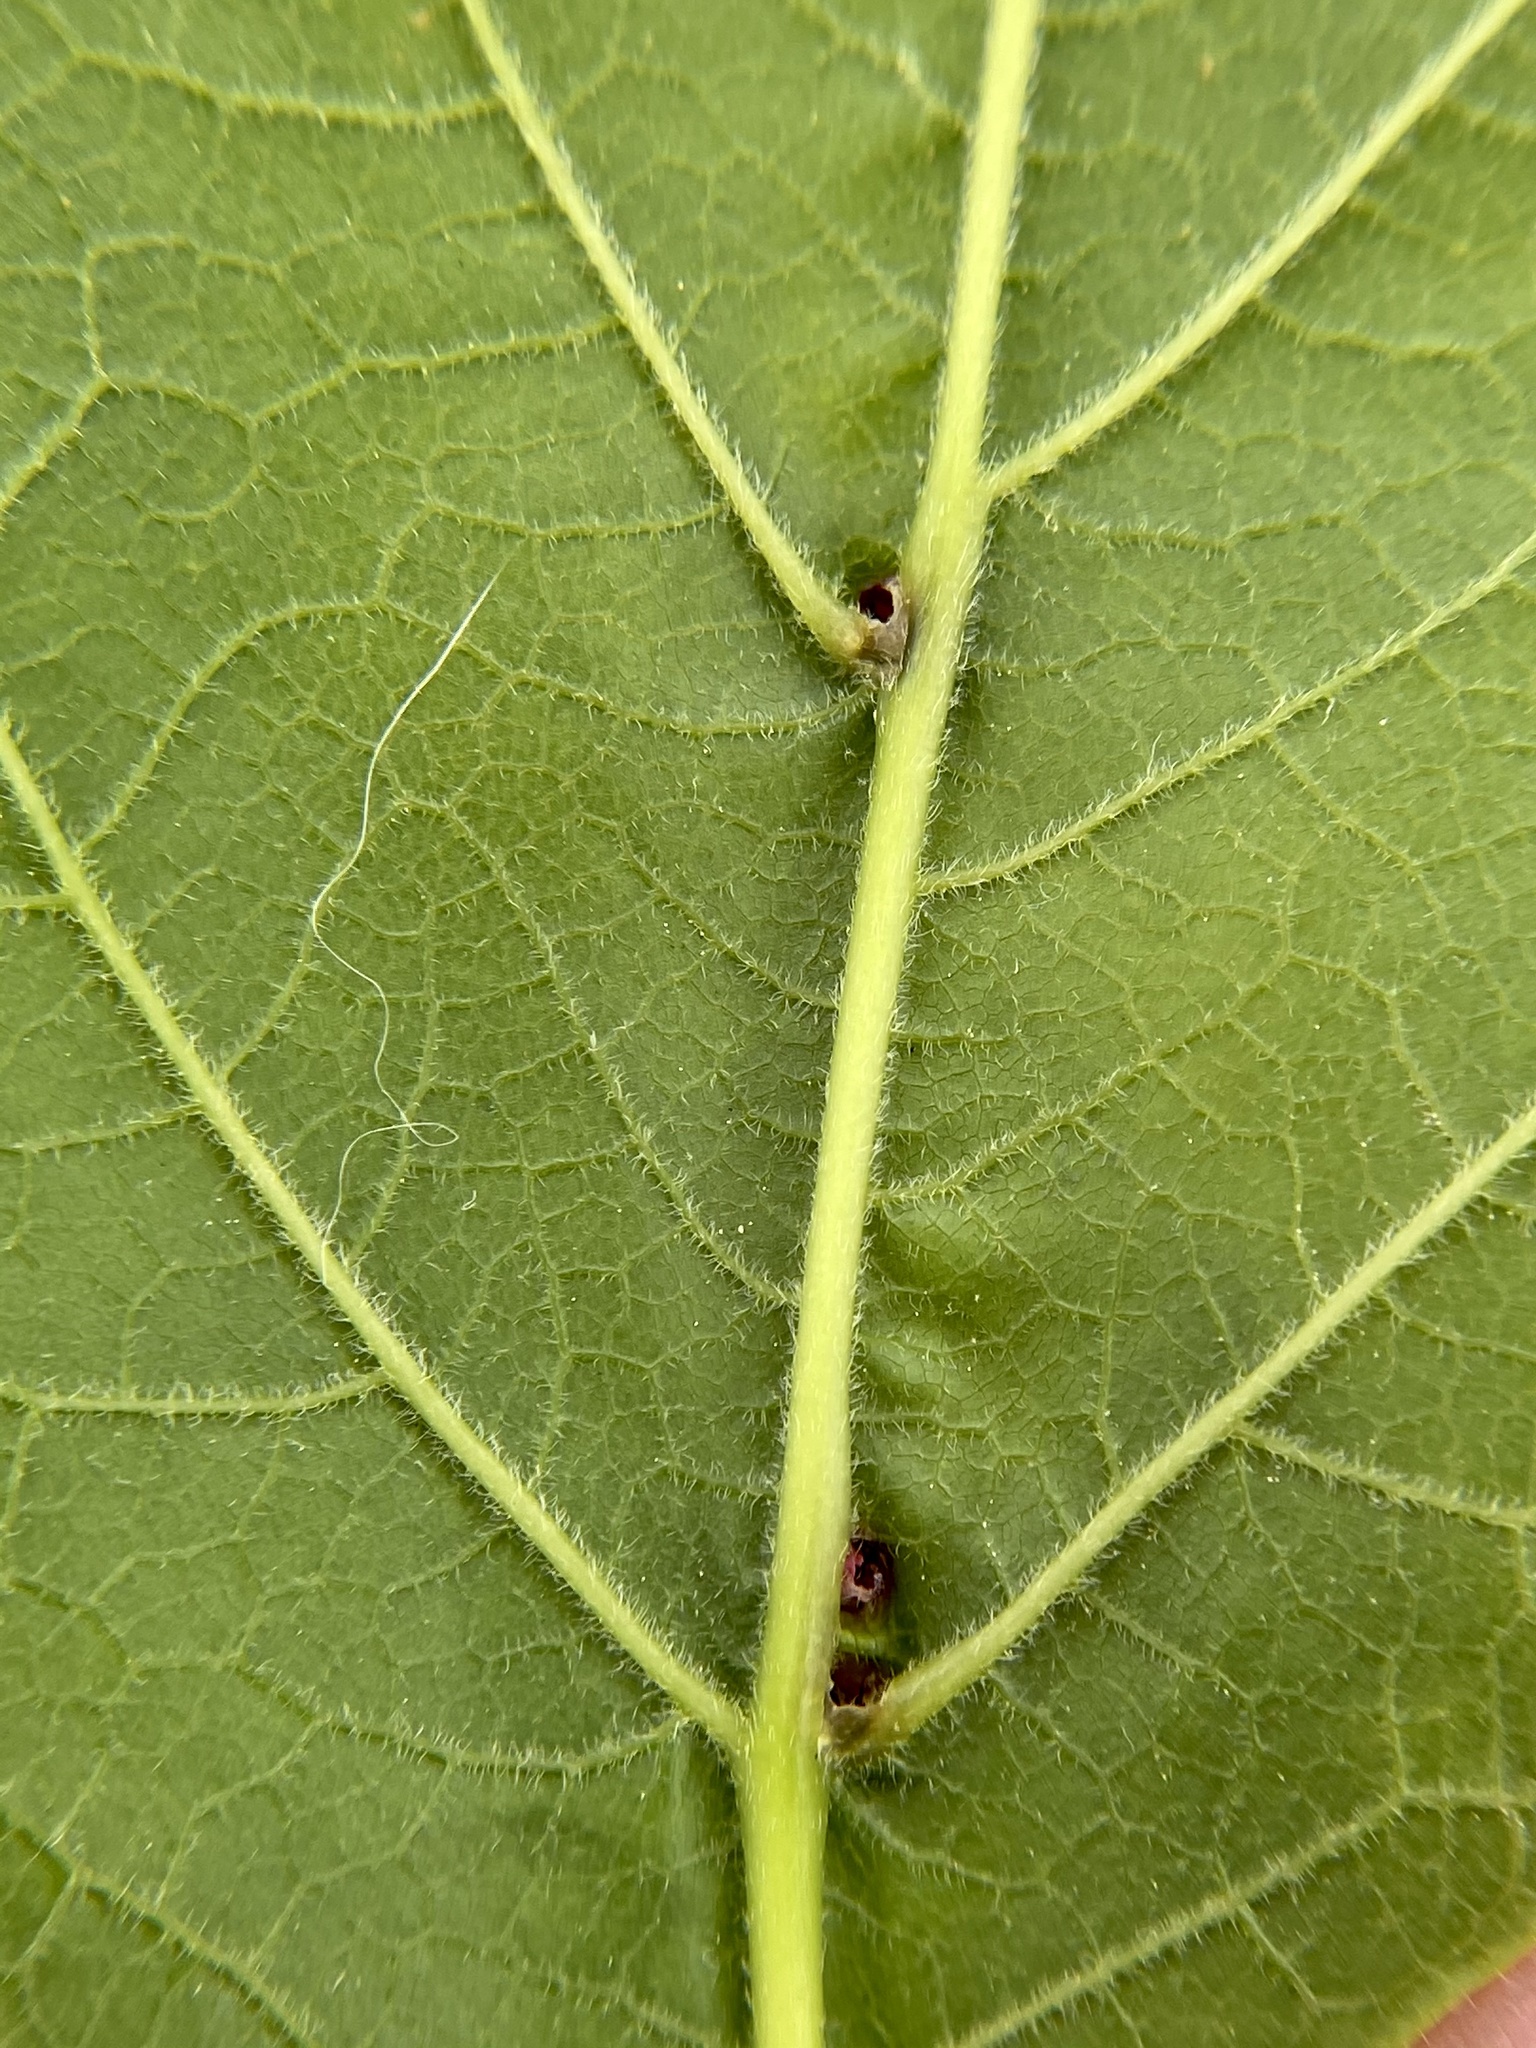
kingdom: Animalia
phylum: Arthropoda
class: Arachnida
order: Trombidiformes
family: Eriophyidae
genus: Aceria
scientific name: Aceria
